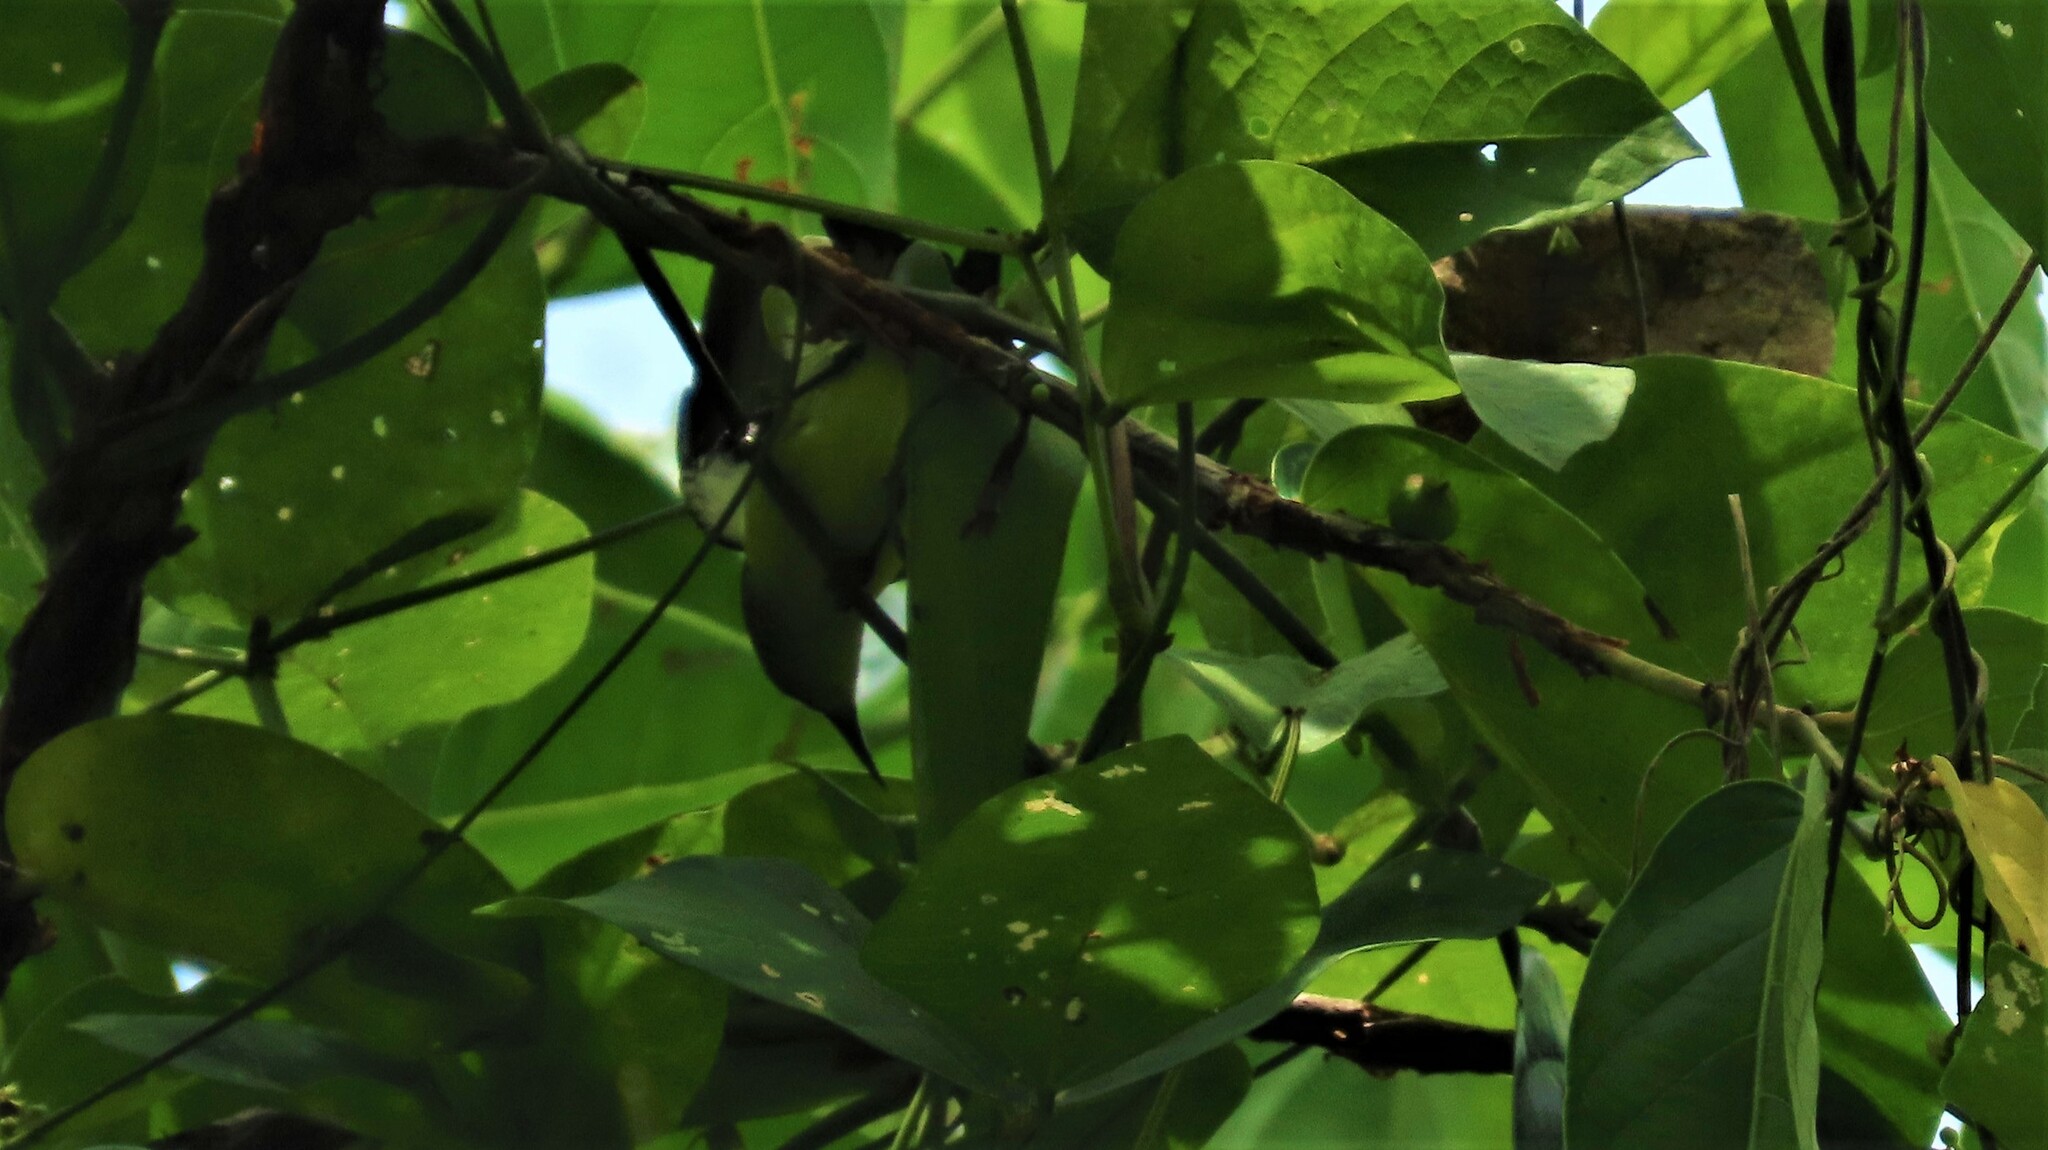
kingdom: Animalia
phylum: Chordata
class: Aves
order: Passeriformes
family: Nectariniidae
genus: Leptocoma
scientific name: Leptocoma zeylonica
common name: Purple-rumped sunbird
